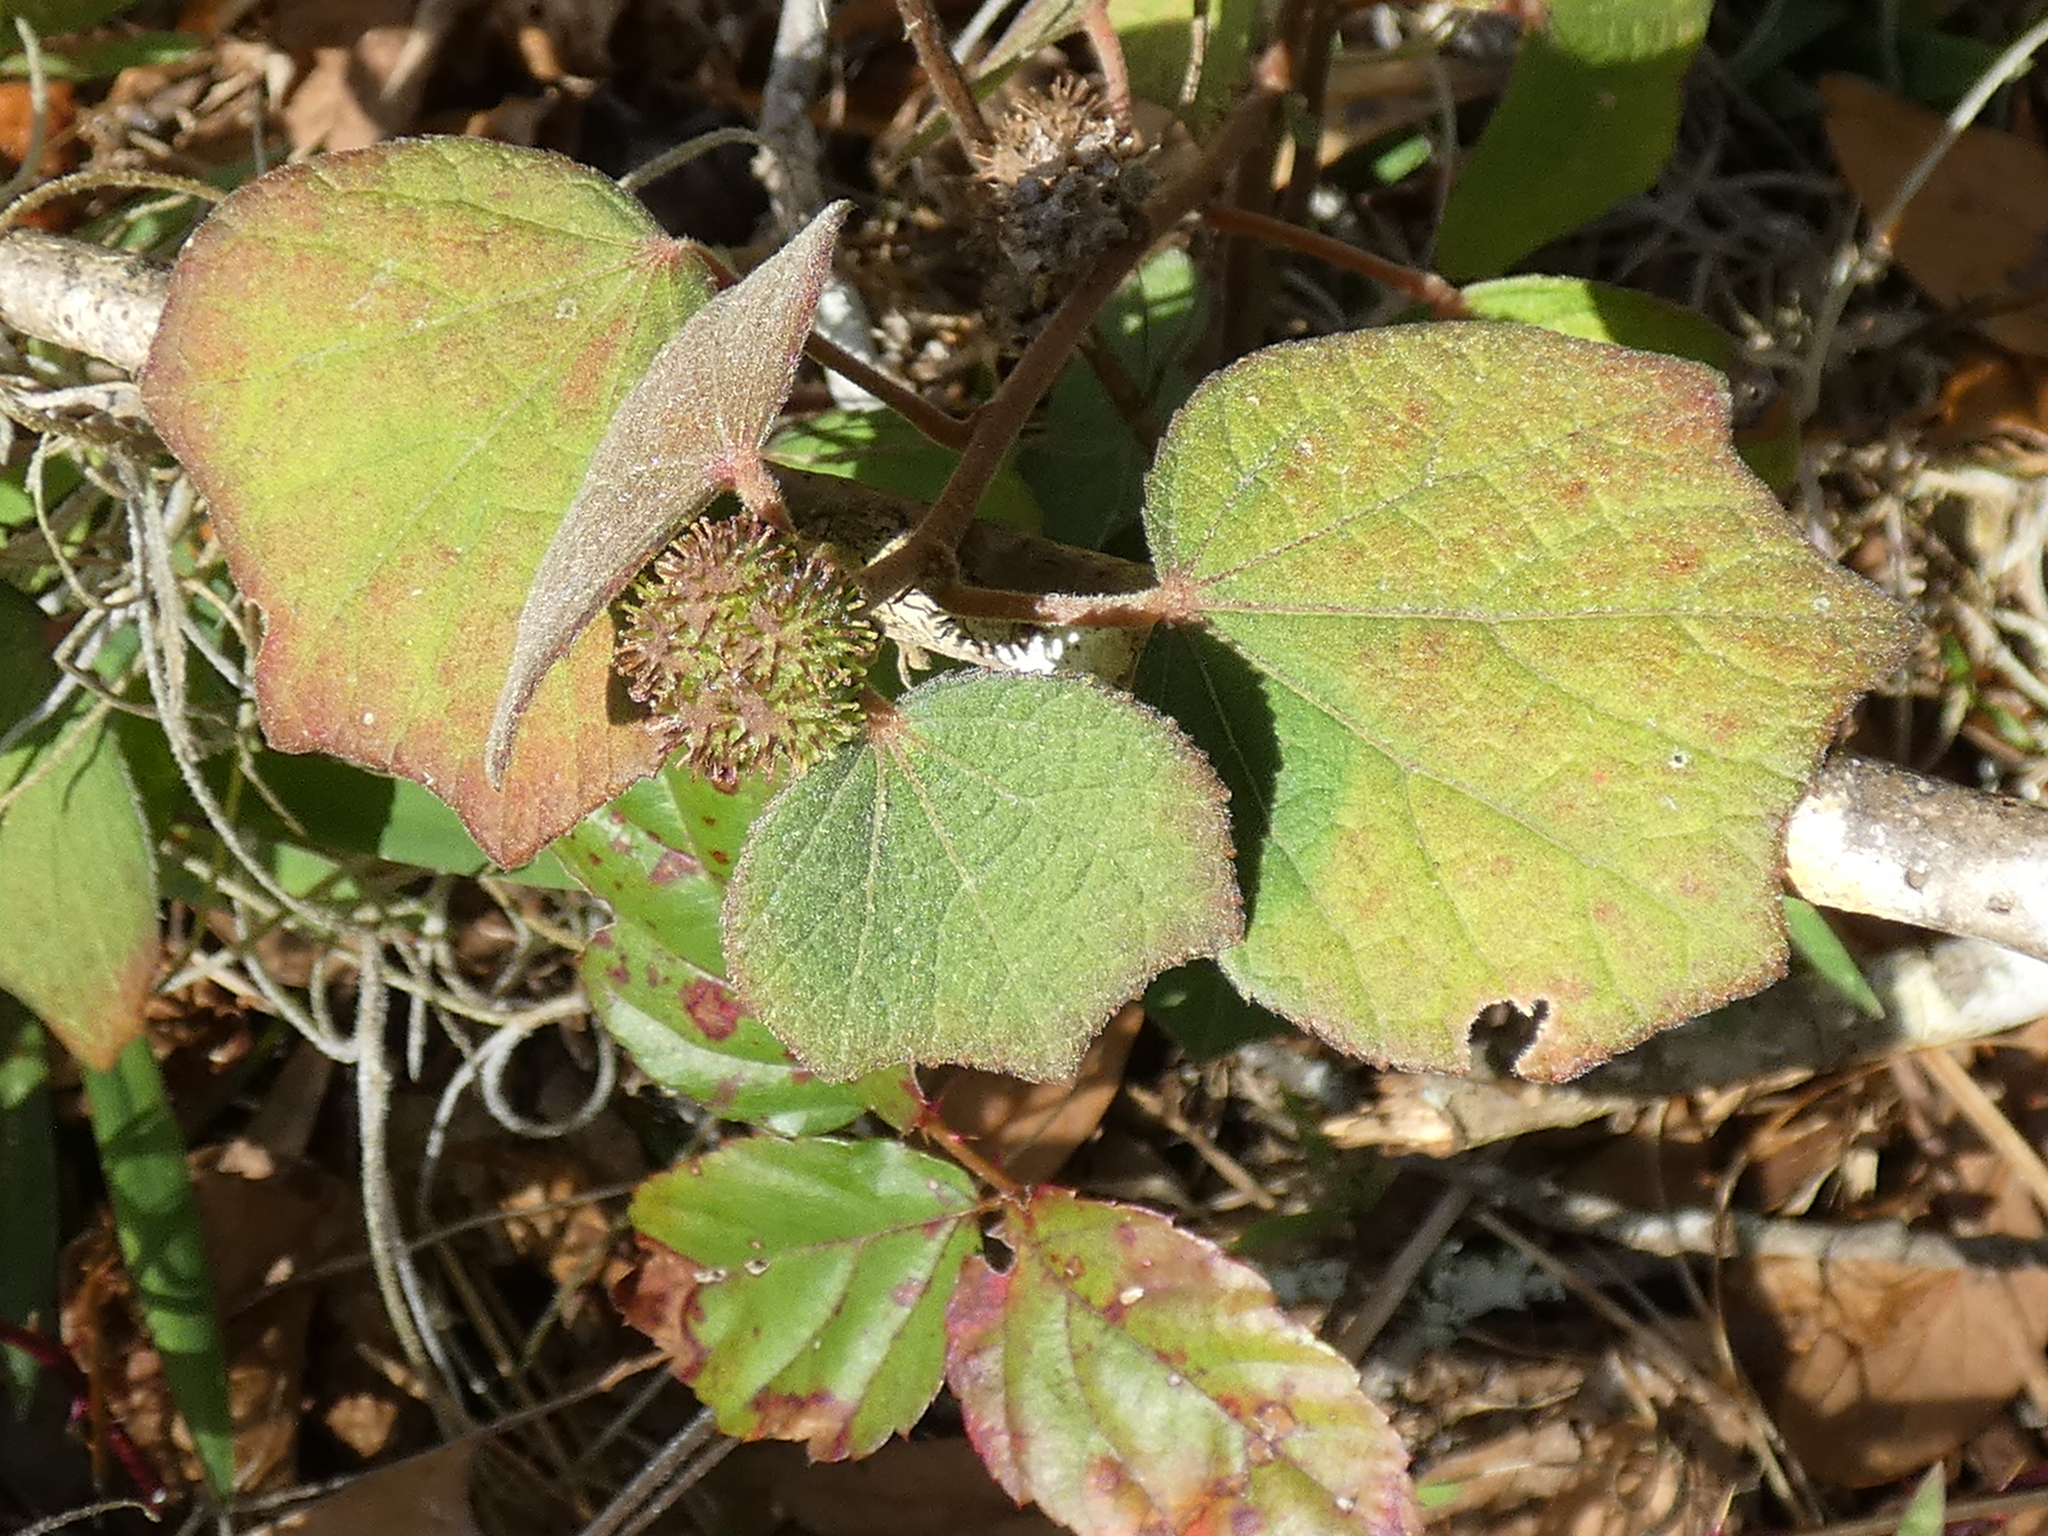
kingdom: Plantae
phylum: Tracheophyta
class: Magnoliopsida
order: Malvales
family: Malvaceae
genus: Urena
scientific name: Urena lobata
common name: Caesarweed
